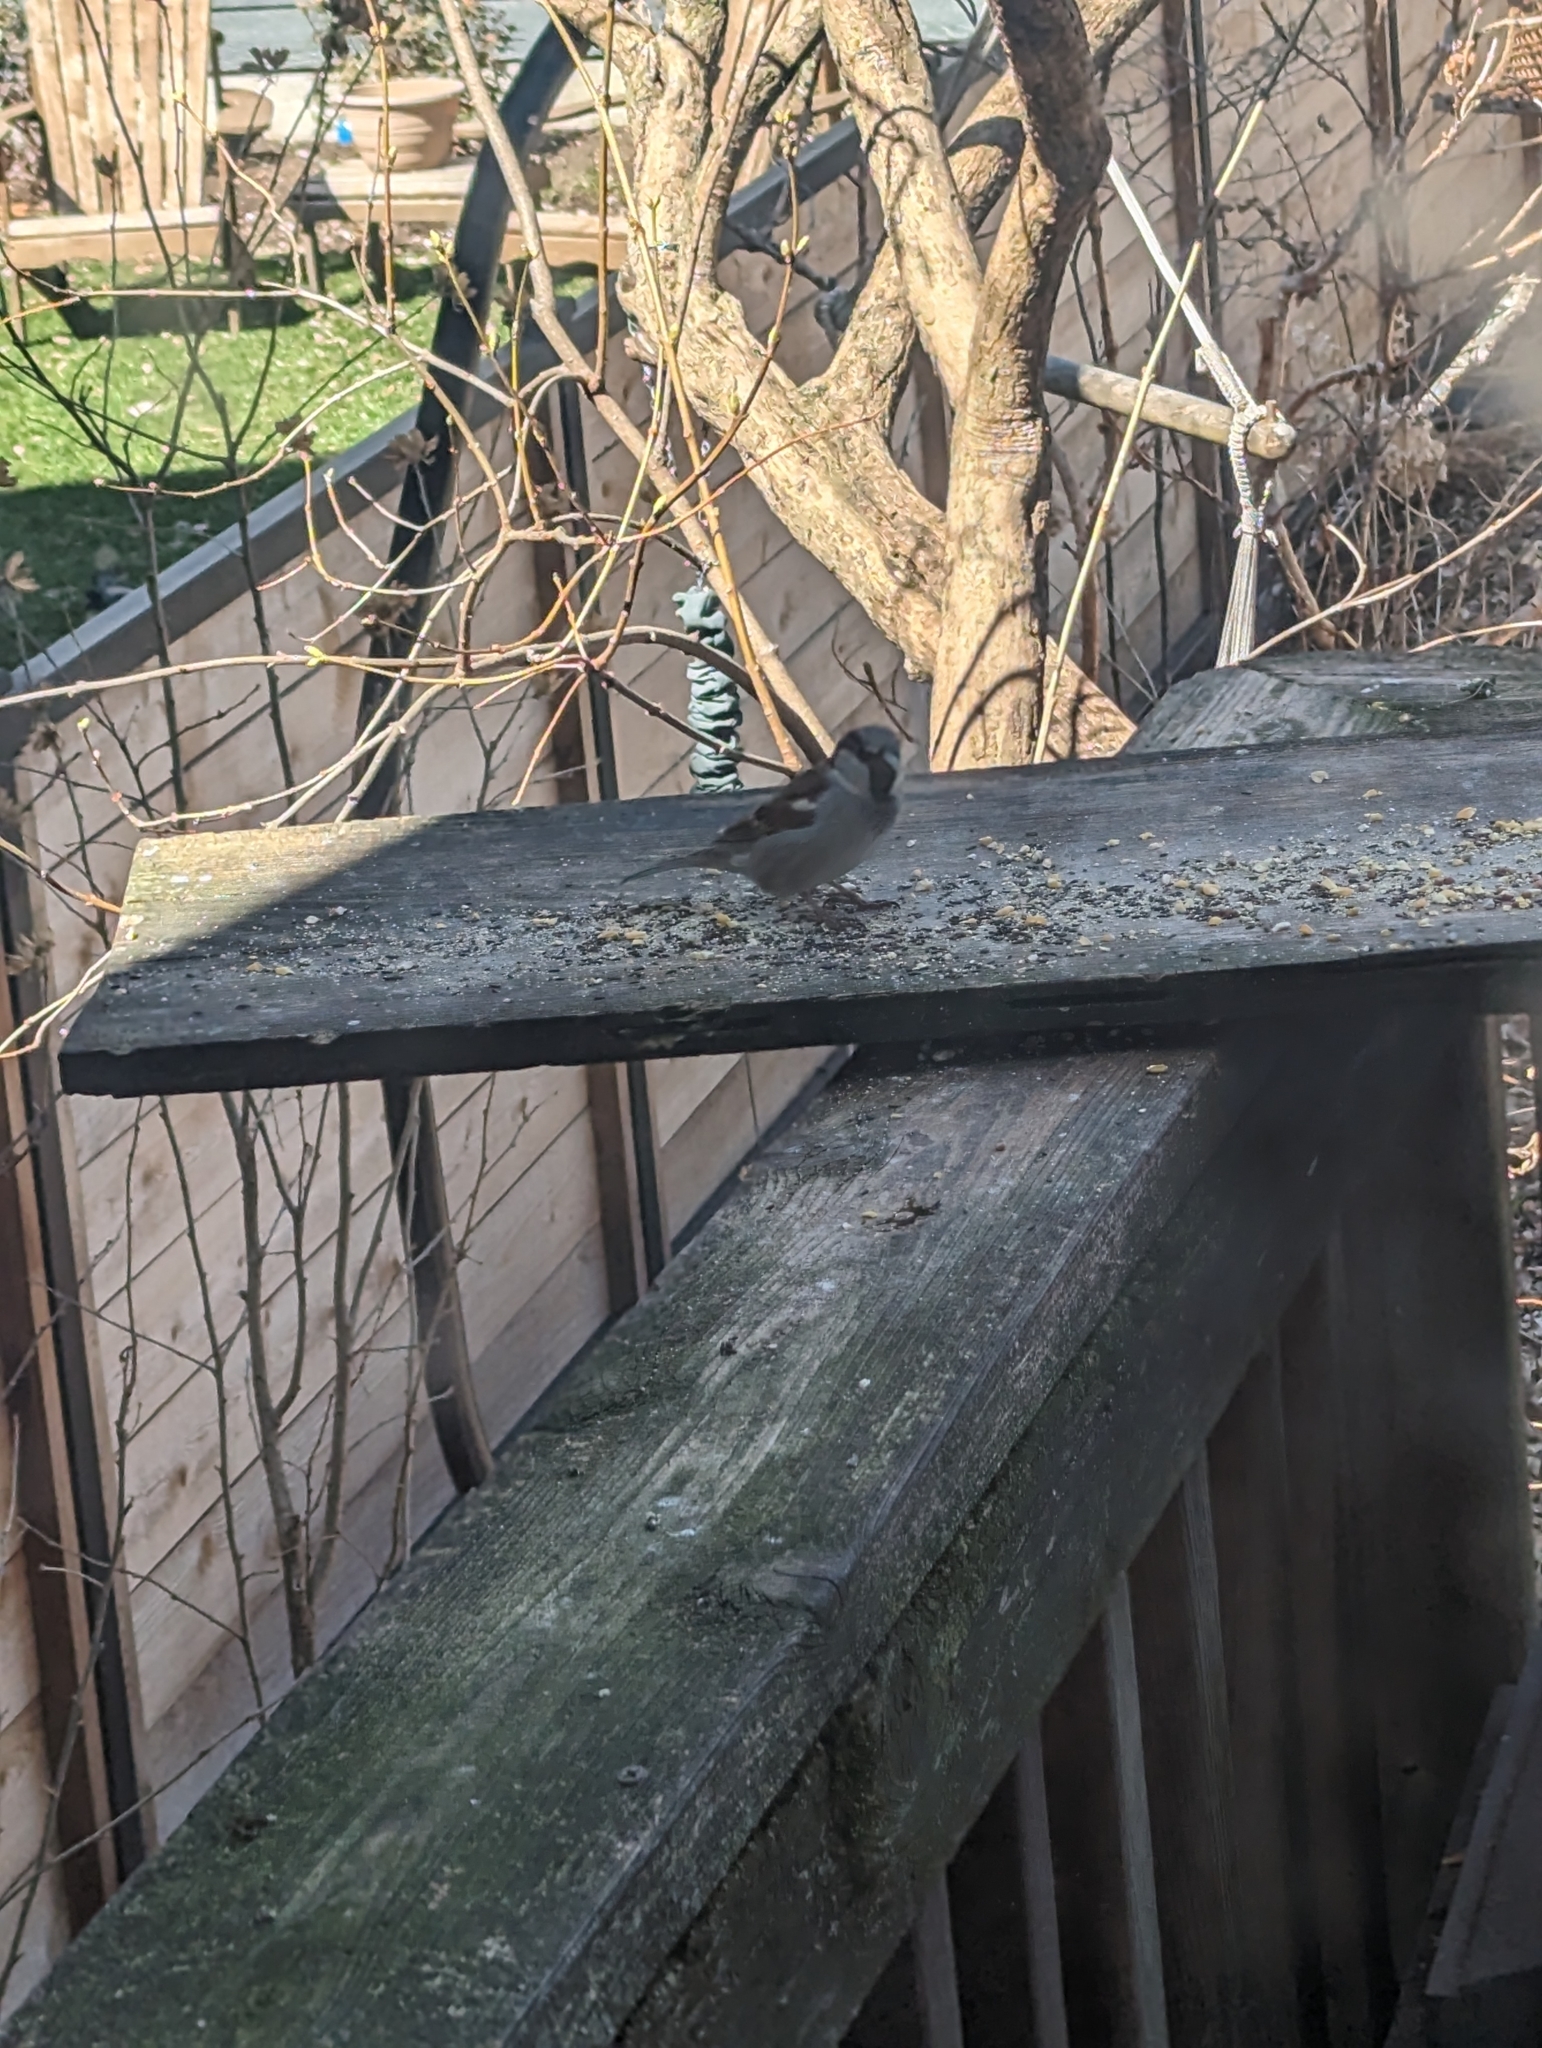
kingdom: Animalia
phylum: Chordata
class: Aves
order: Passeriformes
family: Passeridae
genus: Passer
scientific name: Passer domesticus
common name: House sparrow
